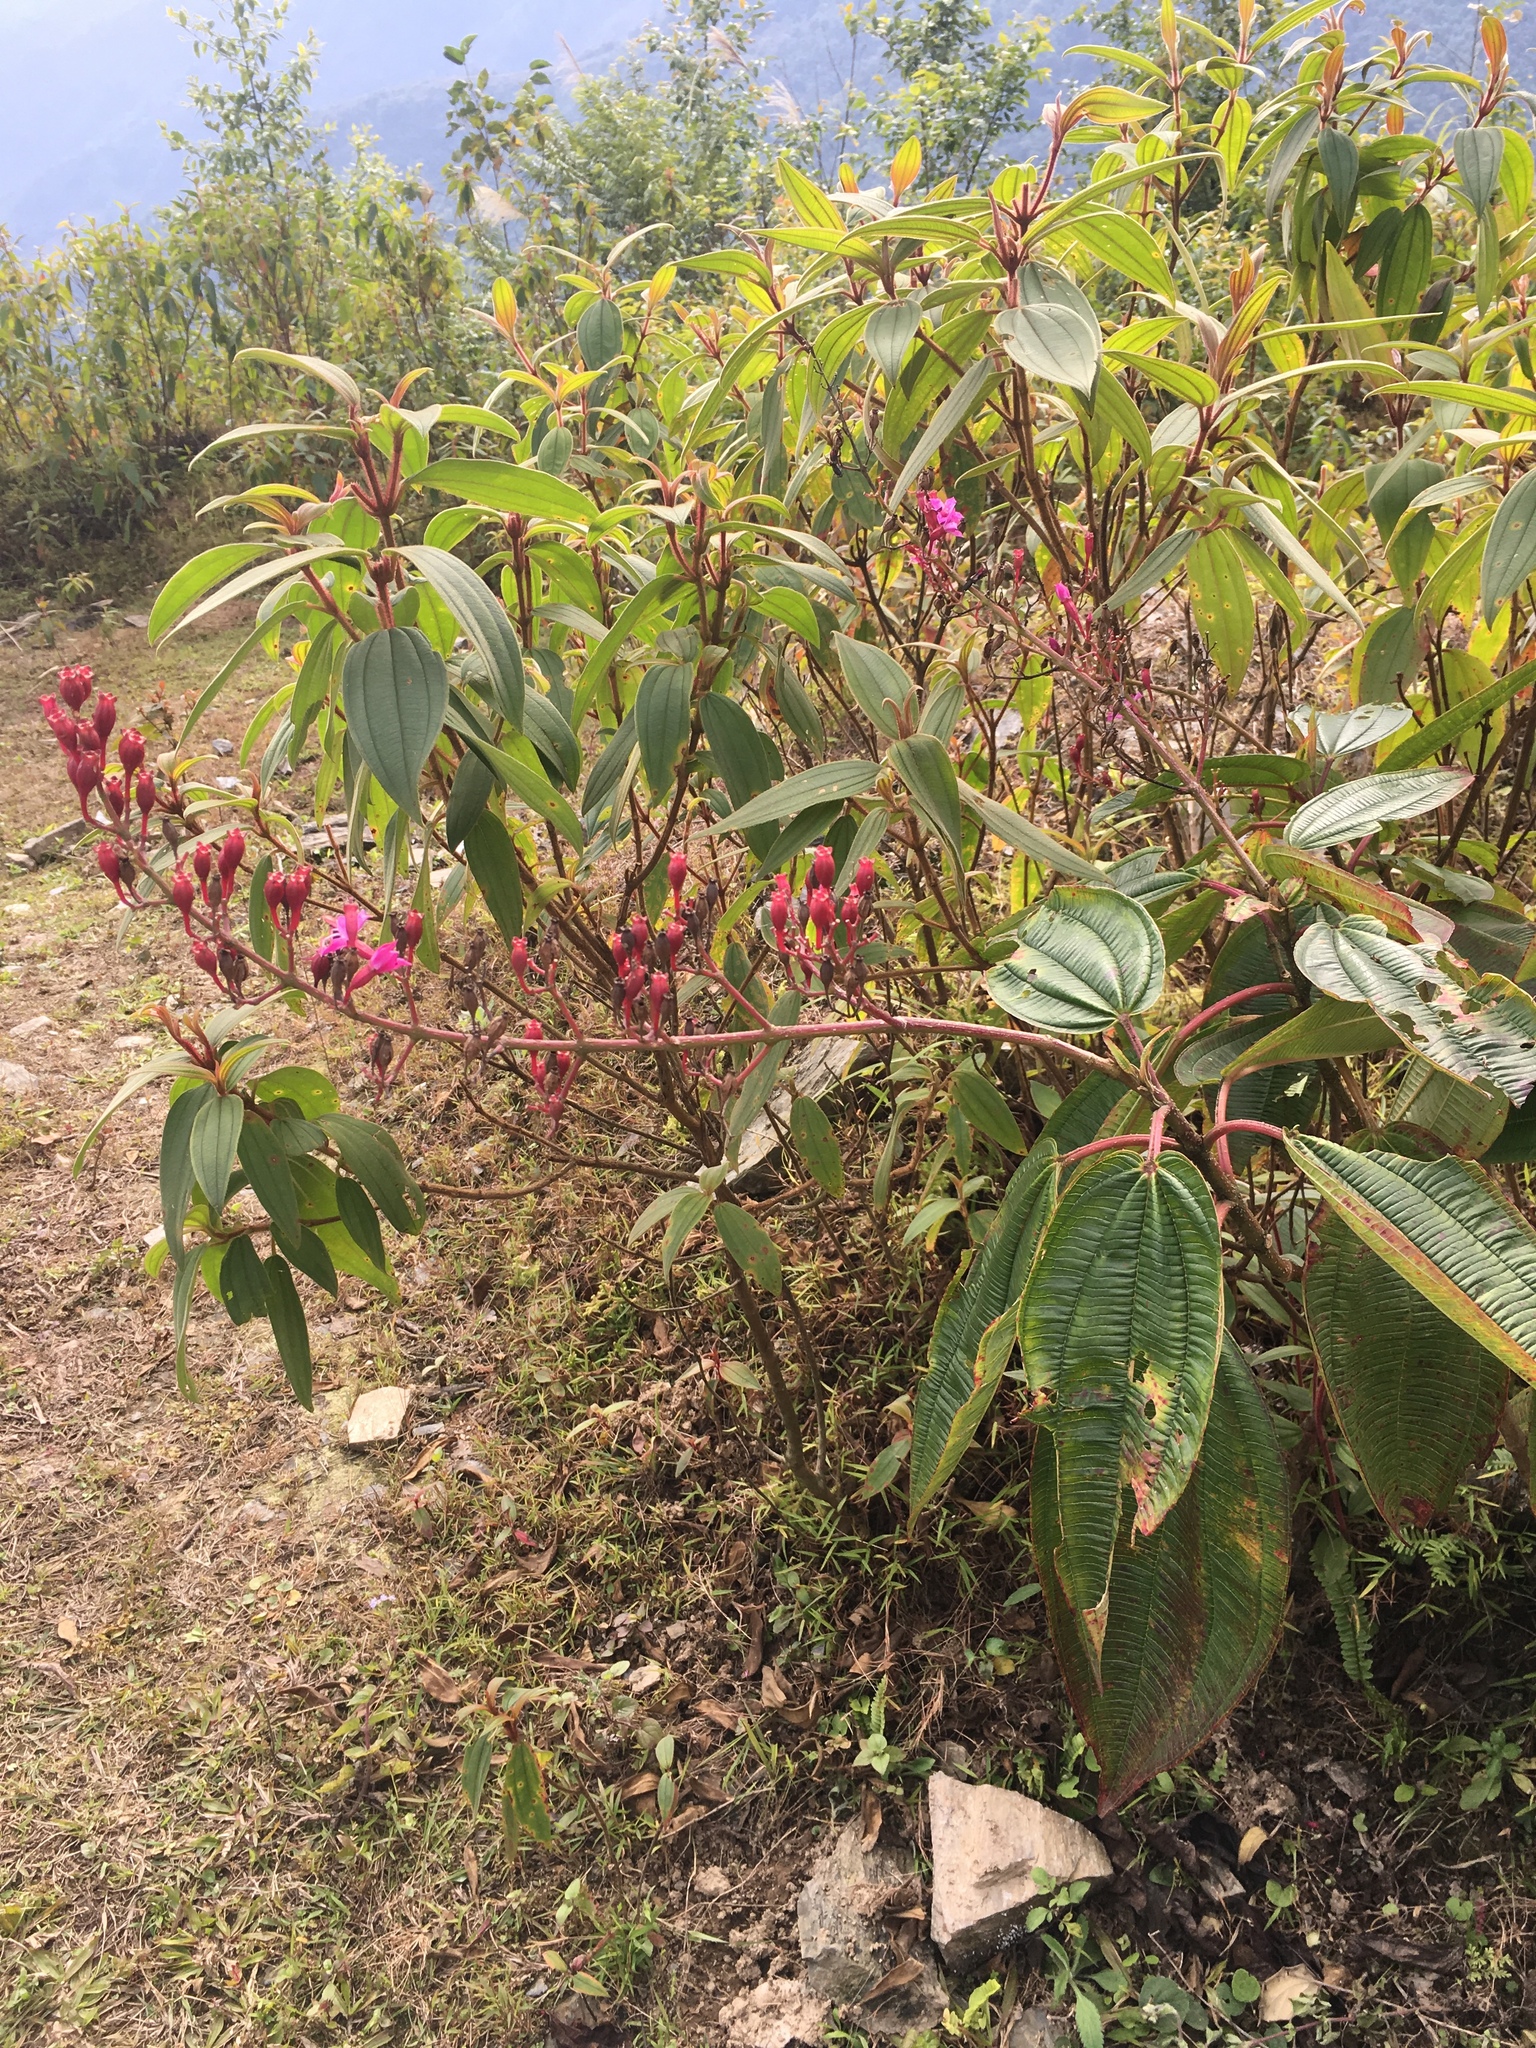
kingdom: Plantae
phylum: Tracheophyta
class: Magnoliopsida
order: Myrtales
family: Melastomataceae
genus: Oxyspora
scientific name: Oxyspora paniculata
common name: Bristletips
